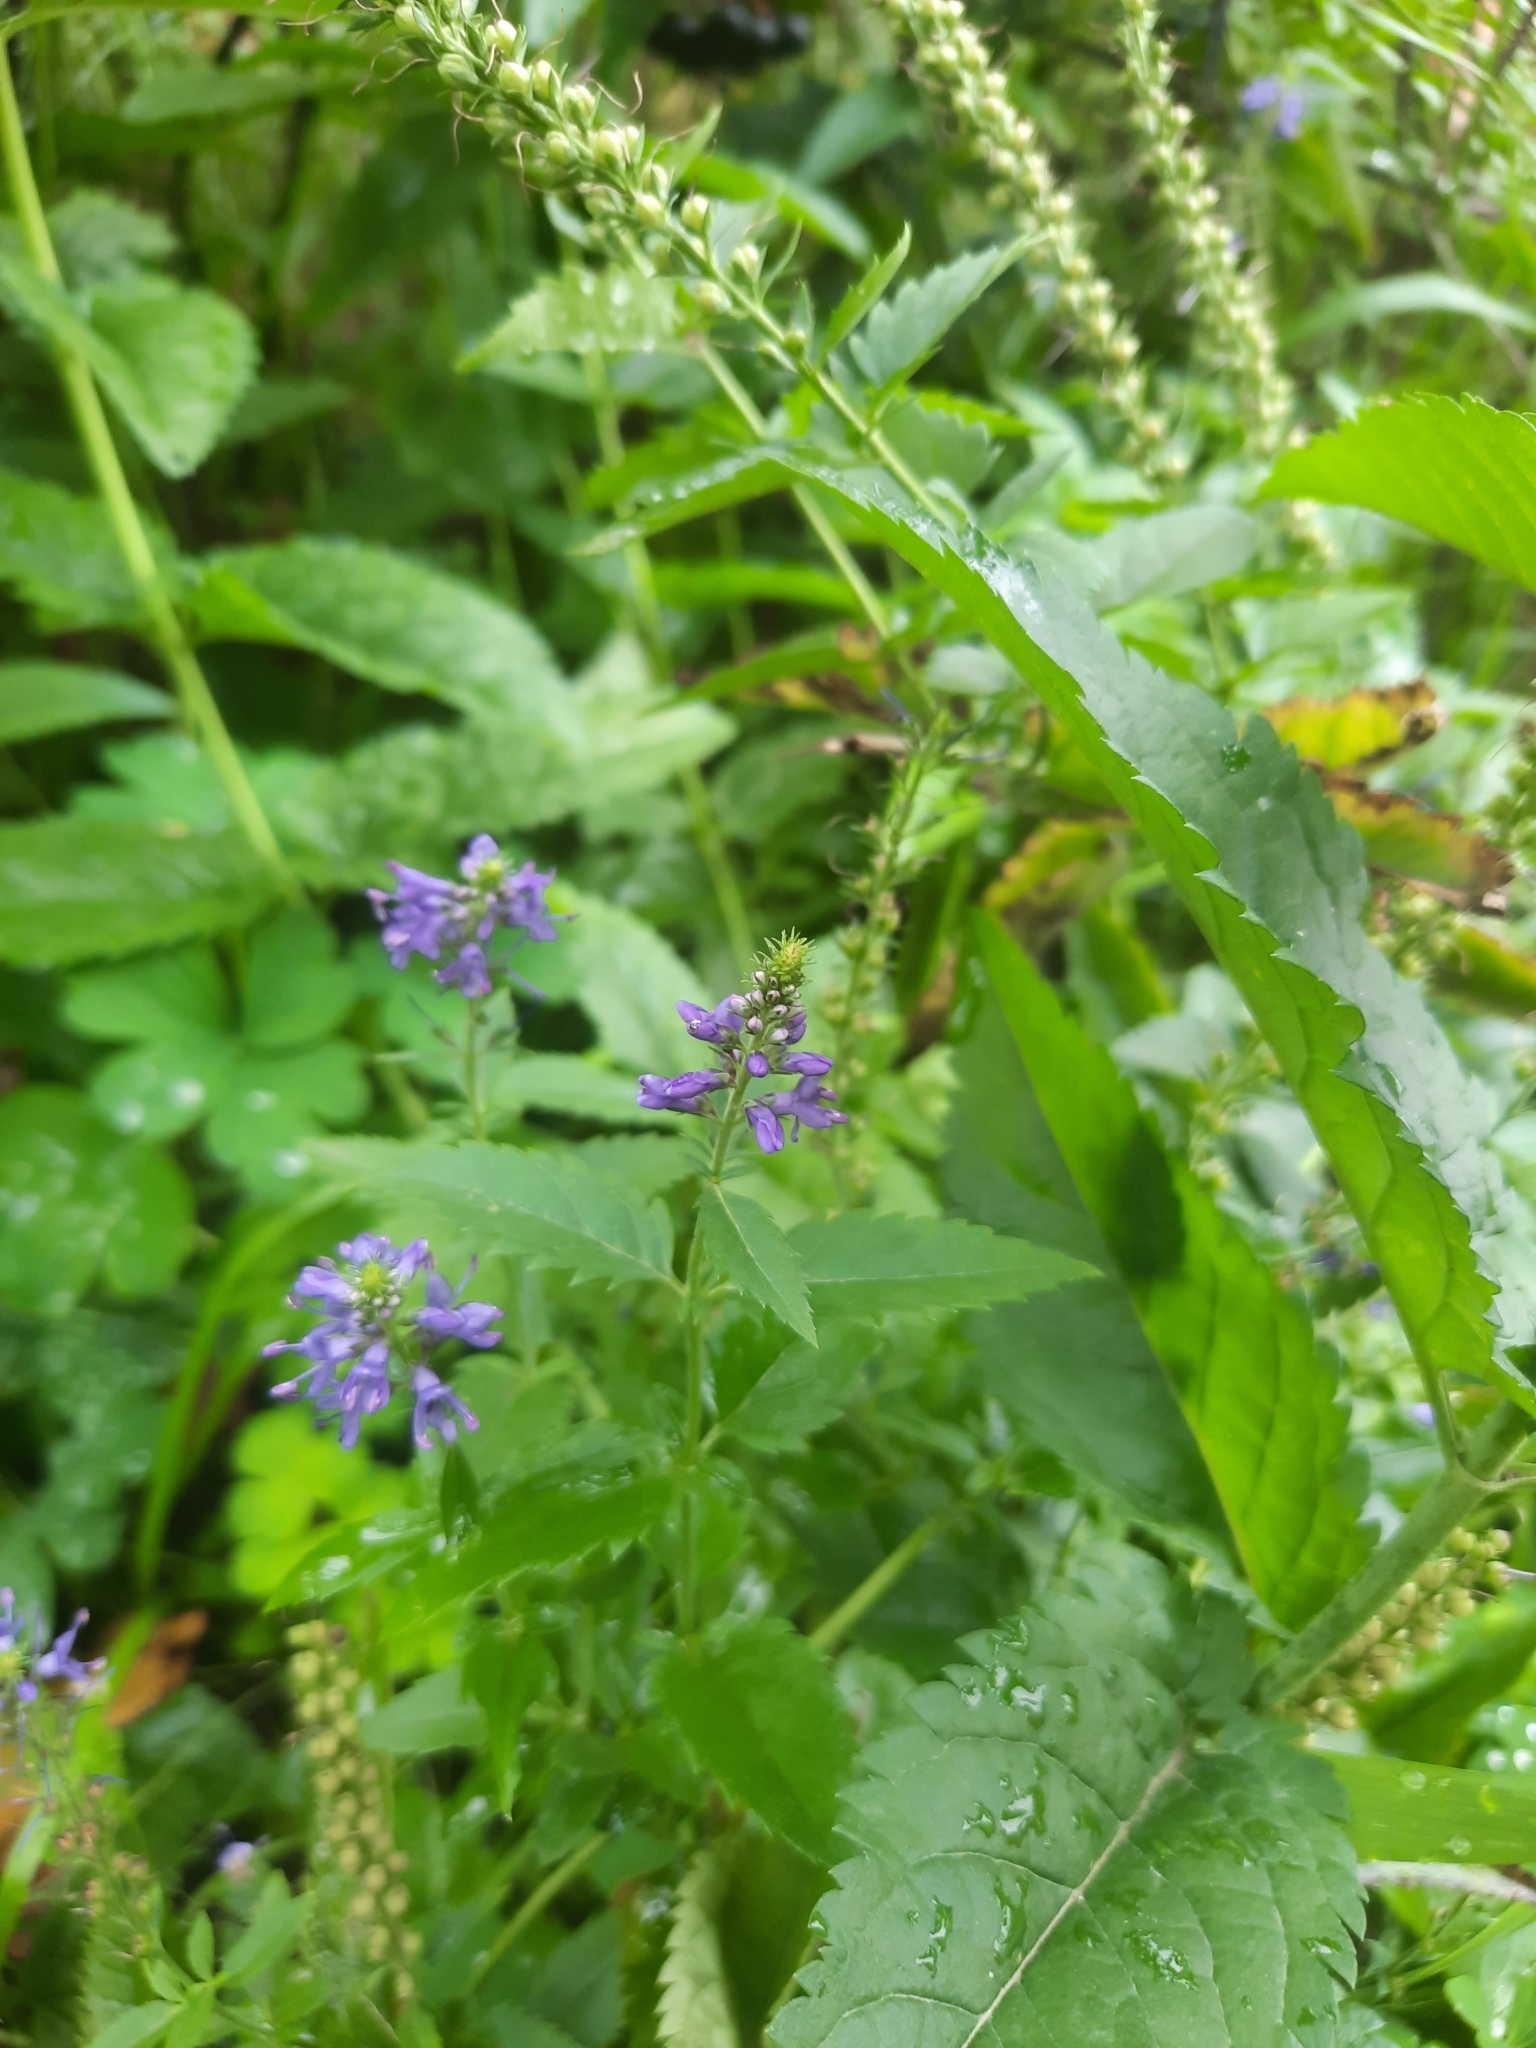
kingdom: Plantae
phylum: Tracheophyta
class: Magnoliopsida
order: Lamiales
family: Plantaginaceae
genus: Veronica
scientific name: Veronica longifolia
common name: Garden speedwell
